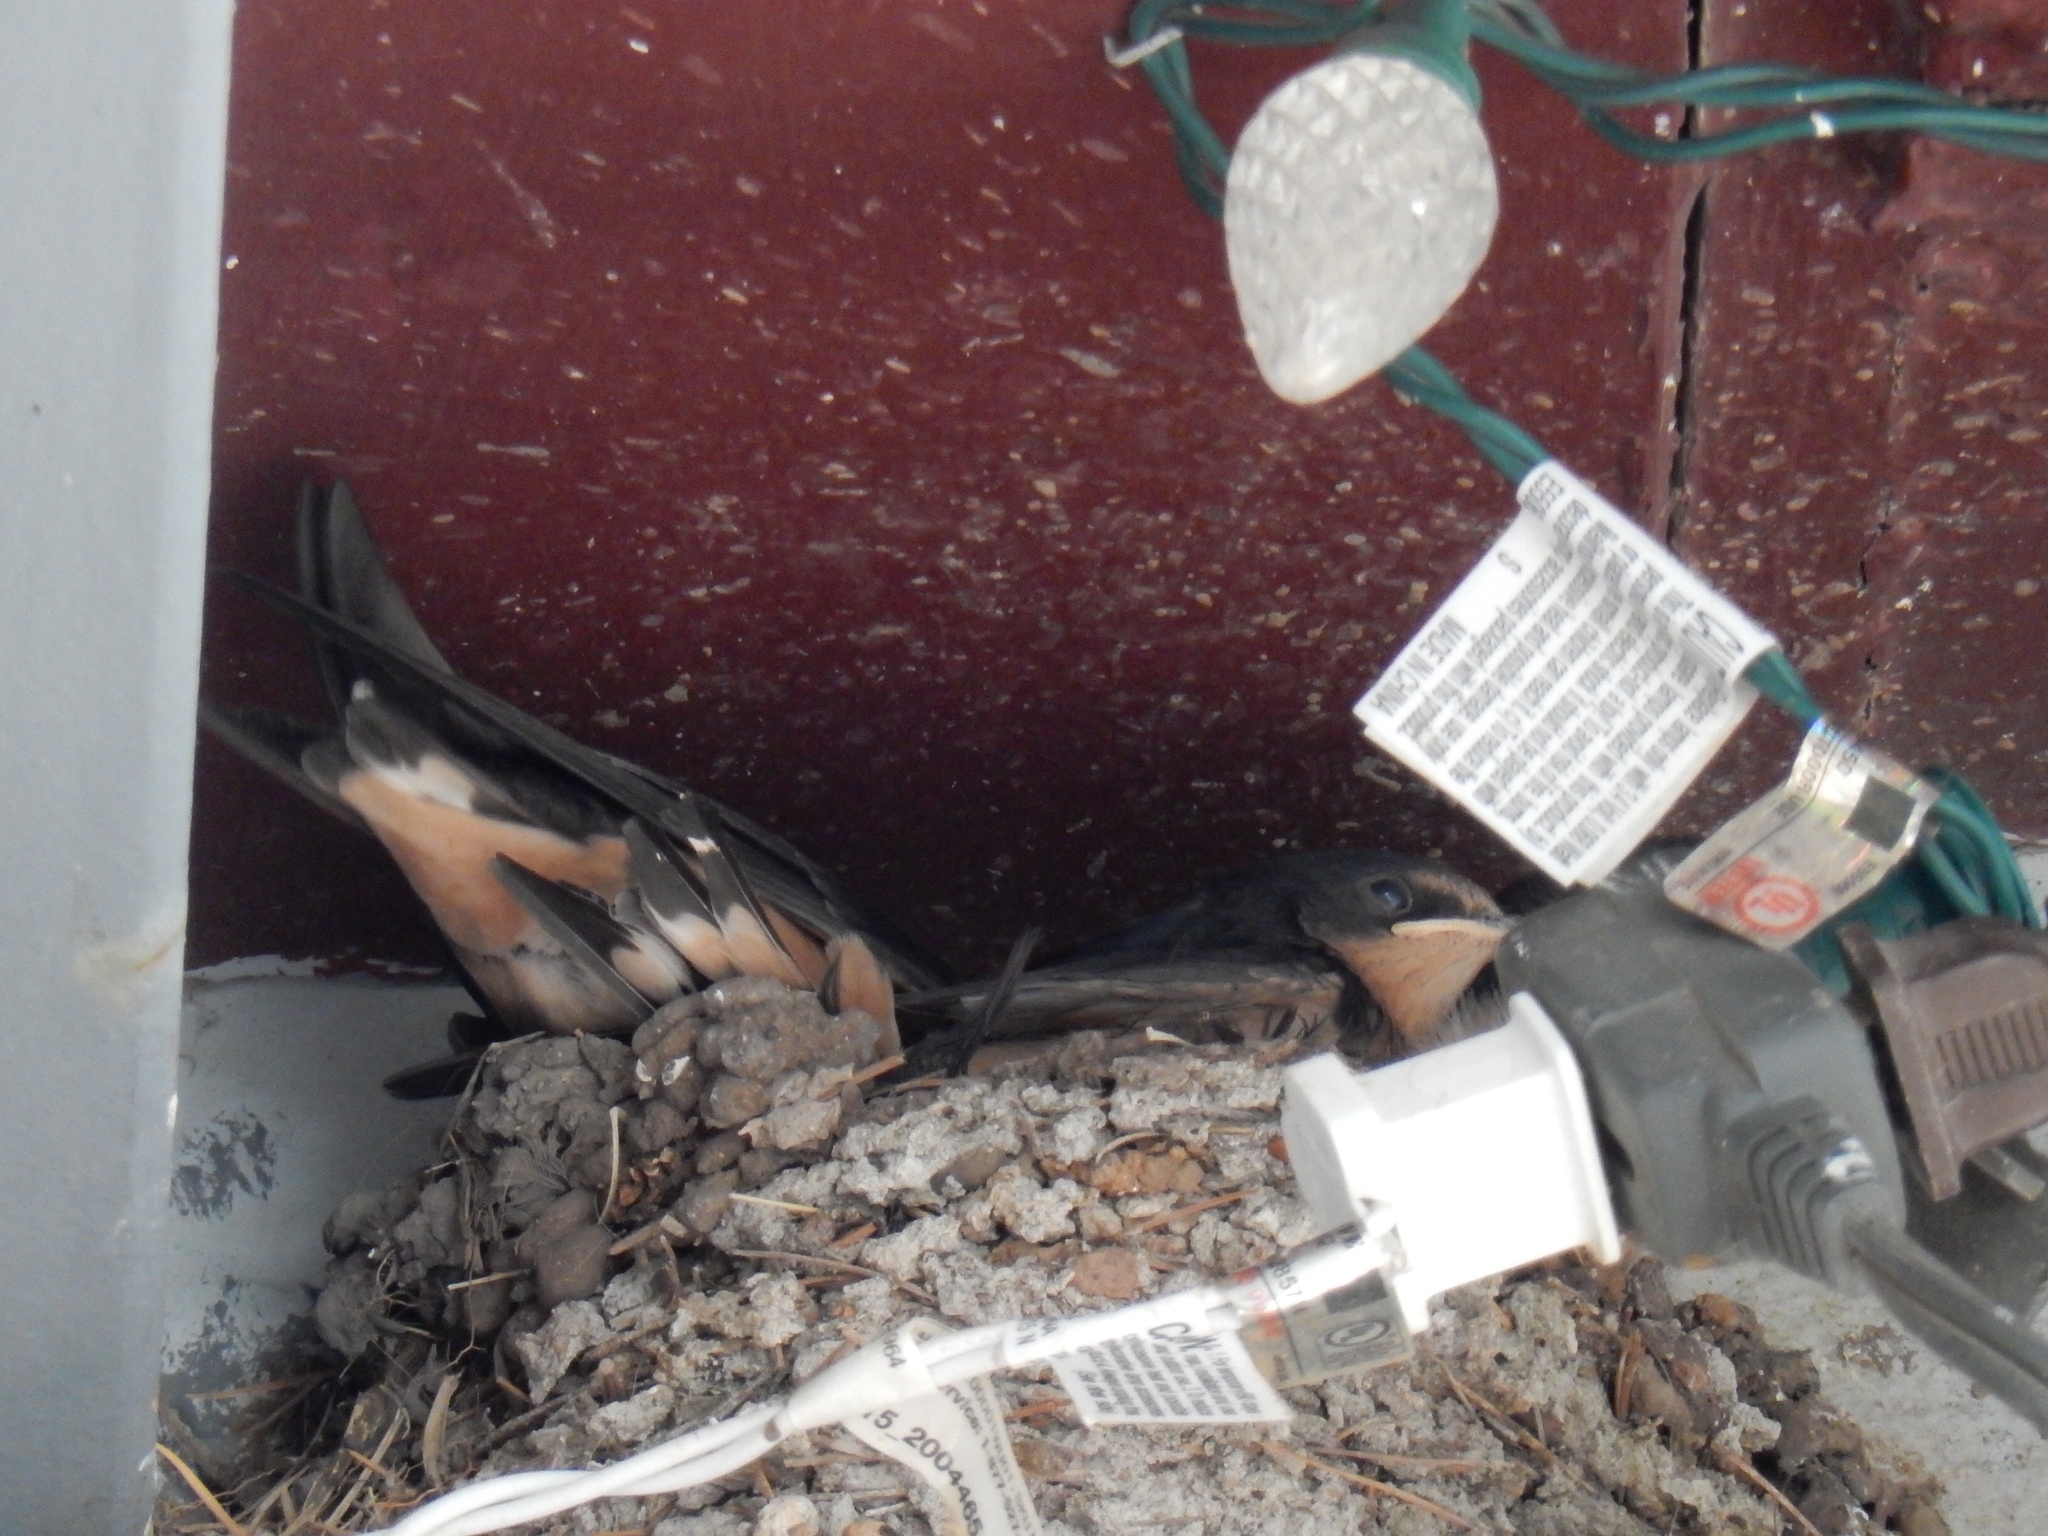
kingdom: Animalia
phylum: Chordata
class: Aves
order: Passeriformes
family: Hirundinidae
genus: Hirundo
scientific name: Hirundo rustica
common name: Barn swallow
